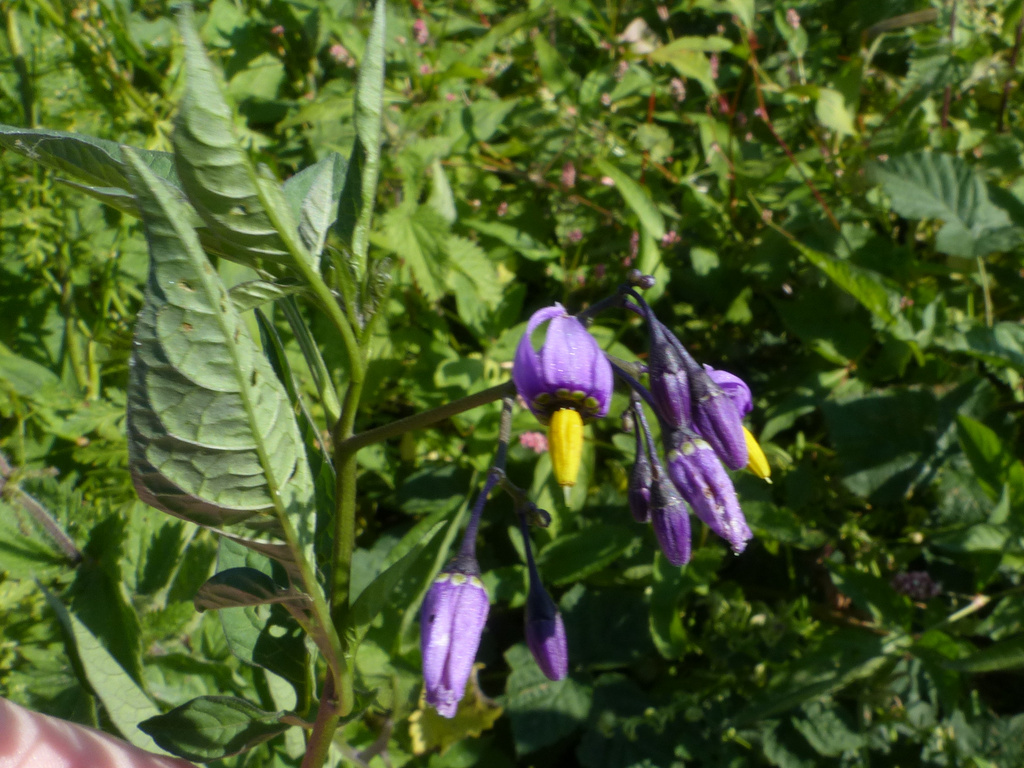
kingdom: Plantae
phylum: Tracheophyta
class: Magnoliopsida
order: Solanales
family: Solanaceae
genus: Solanum
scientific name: Solanum dulcamara
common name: Climbing nightshade
